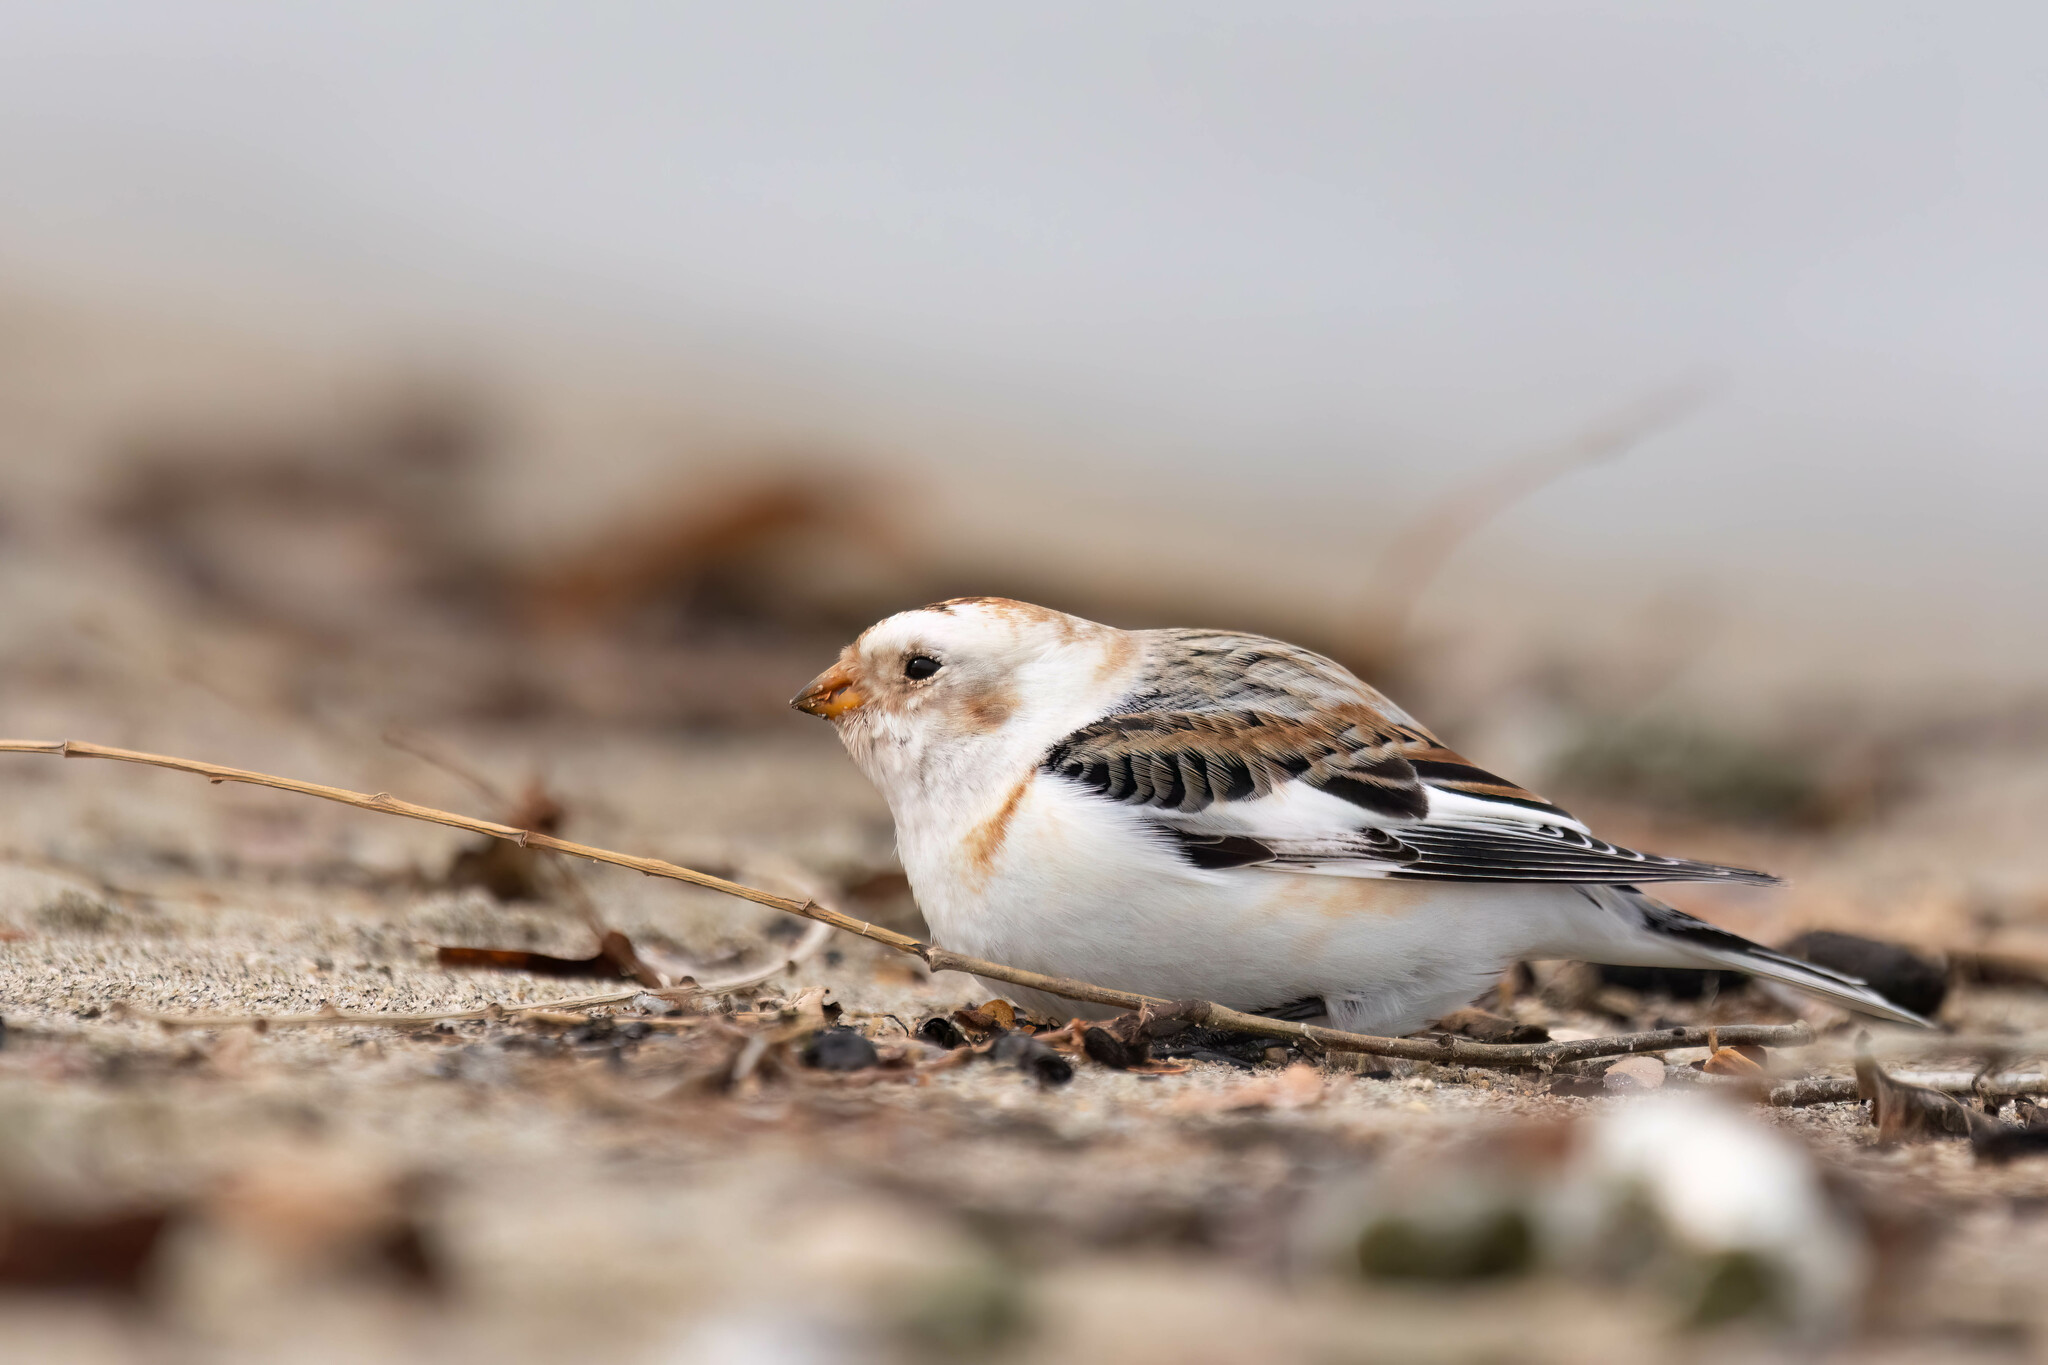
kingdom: Animalia
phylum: Chordata
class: Aves
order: Passeriformes
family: Calcariidae
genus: Plectrophenax
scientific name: Plectrophenax nivalis
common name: Snow bunting
